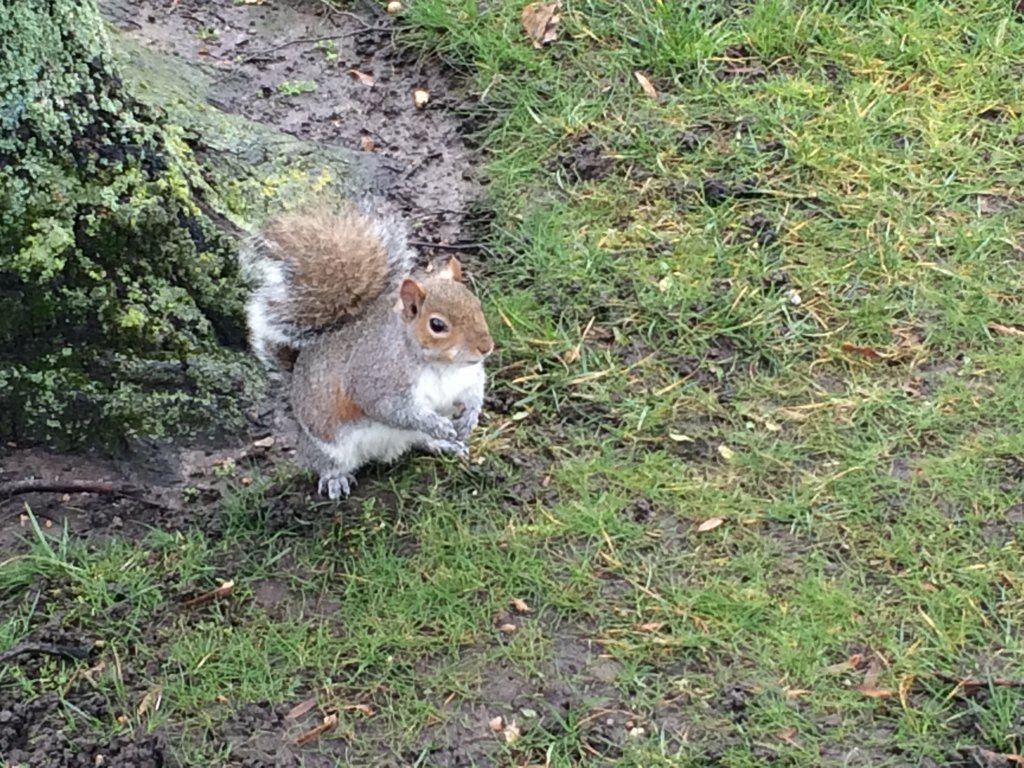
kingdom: Animalia
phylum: Chordata
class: Mammalia
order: Rodentia
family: Sciuridae
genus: Sciurus
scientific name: Sciurus carolinensis
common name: Eastern gray squirrel
